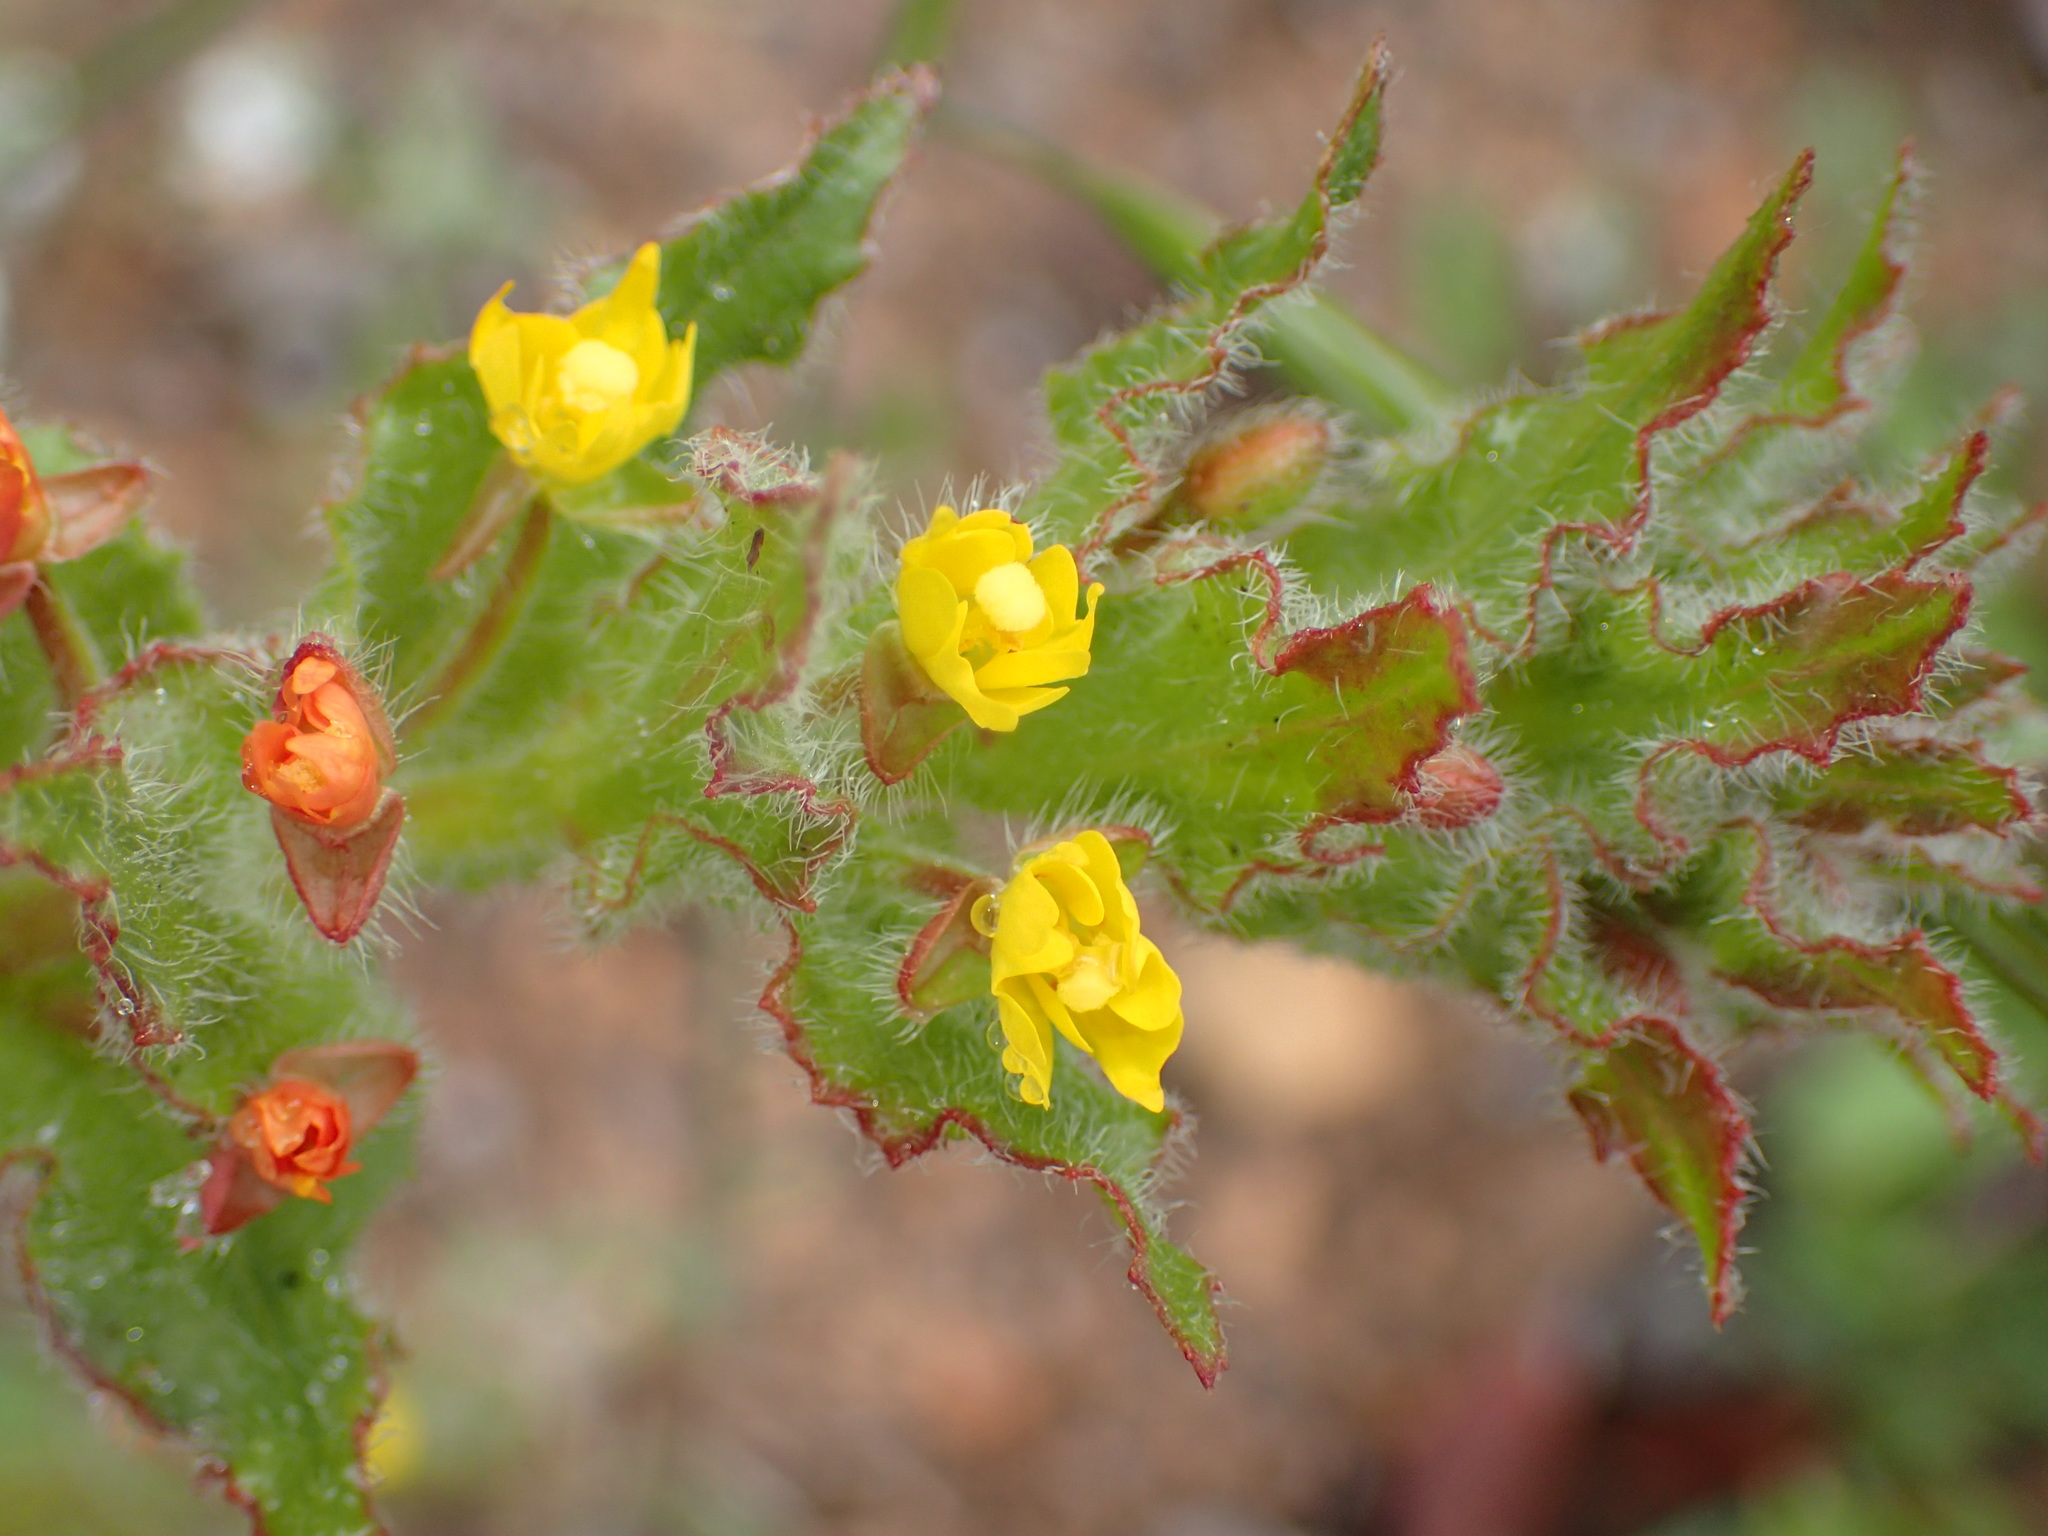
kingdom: Plantae
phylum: Tracheophyta
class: Magnoliopsida
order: Myrtales
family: Onagraceae
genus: Camissoniopsis
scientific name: Camissoniopsis hirtella
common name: Santa cruz island suncup
